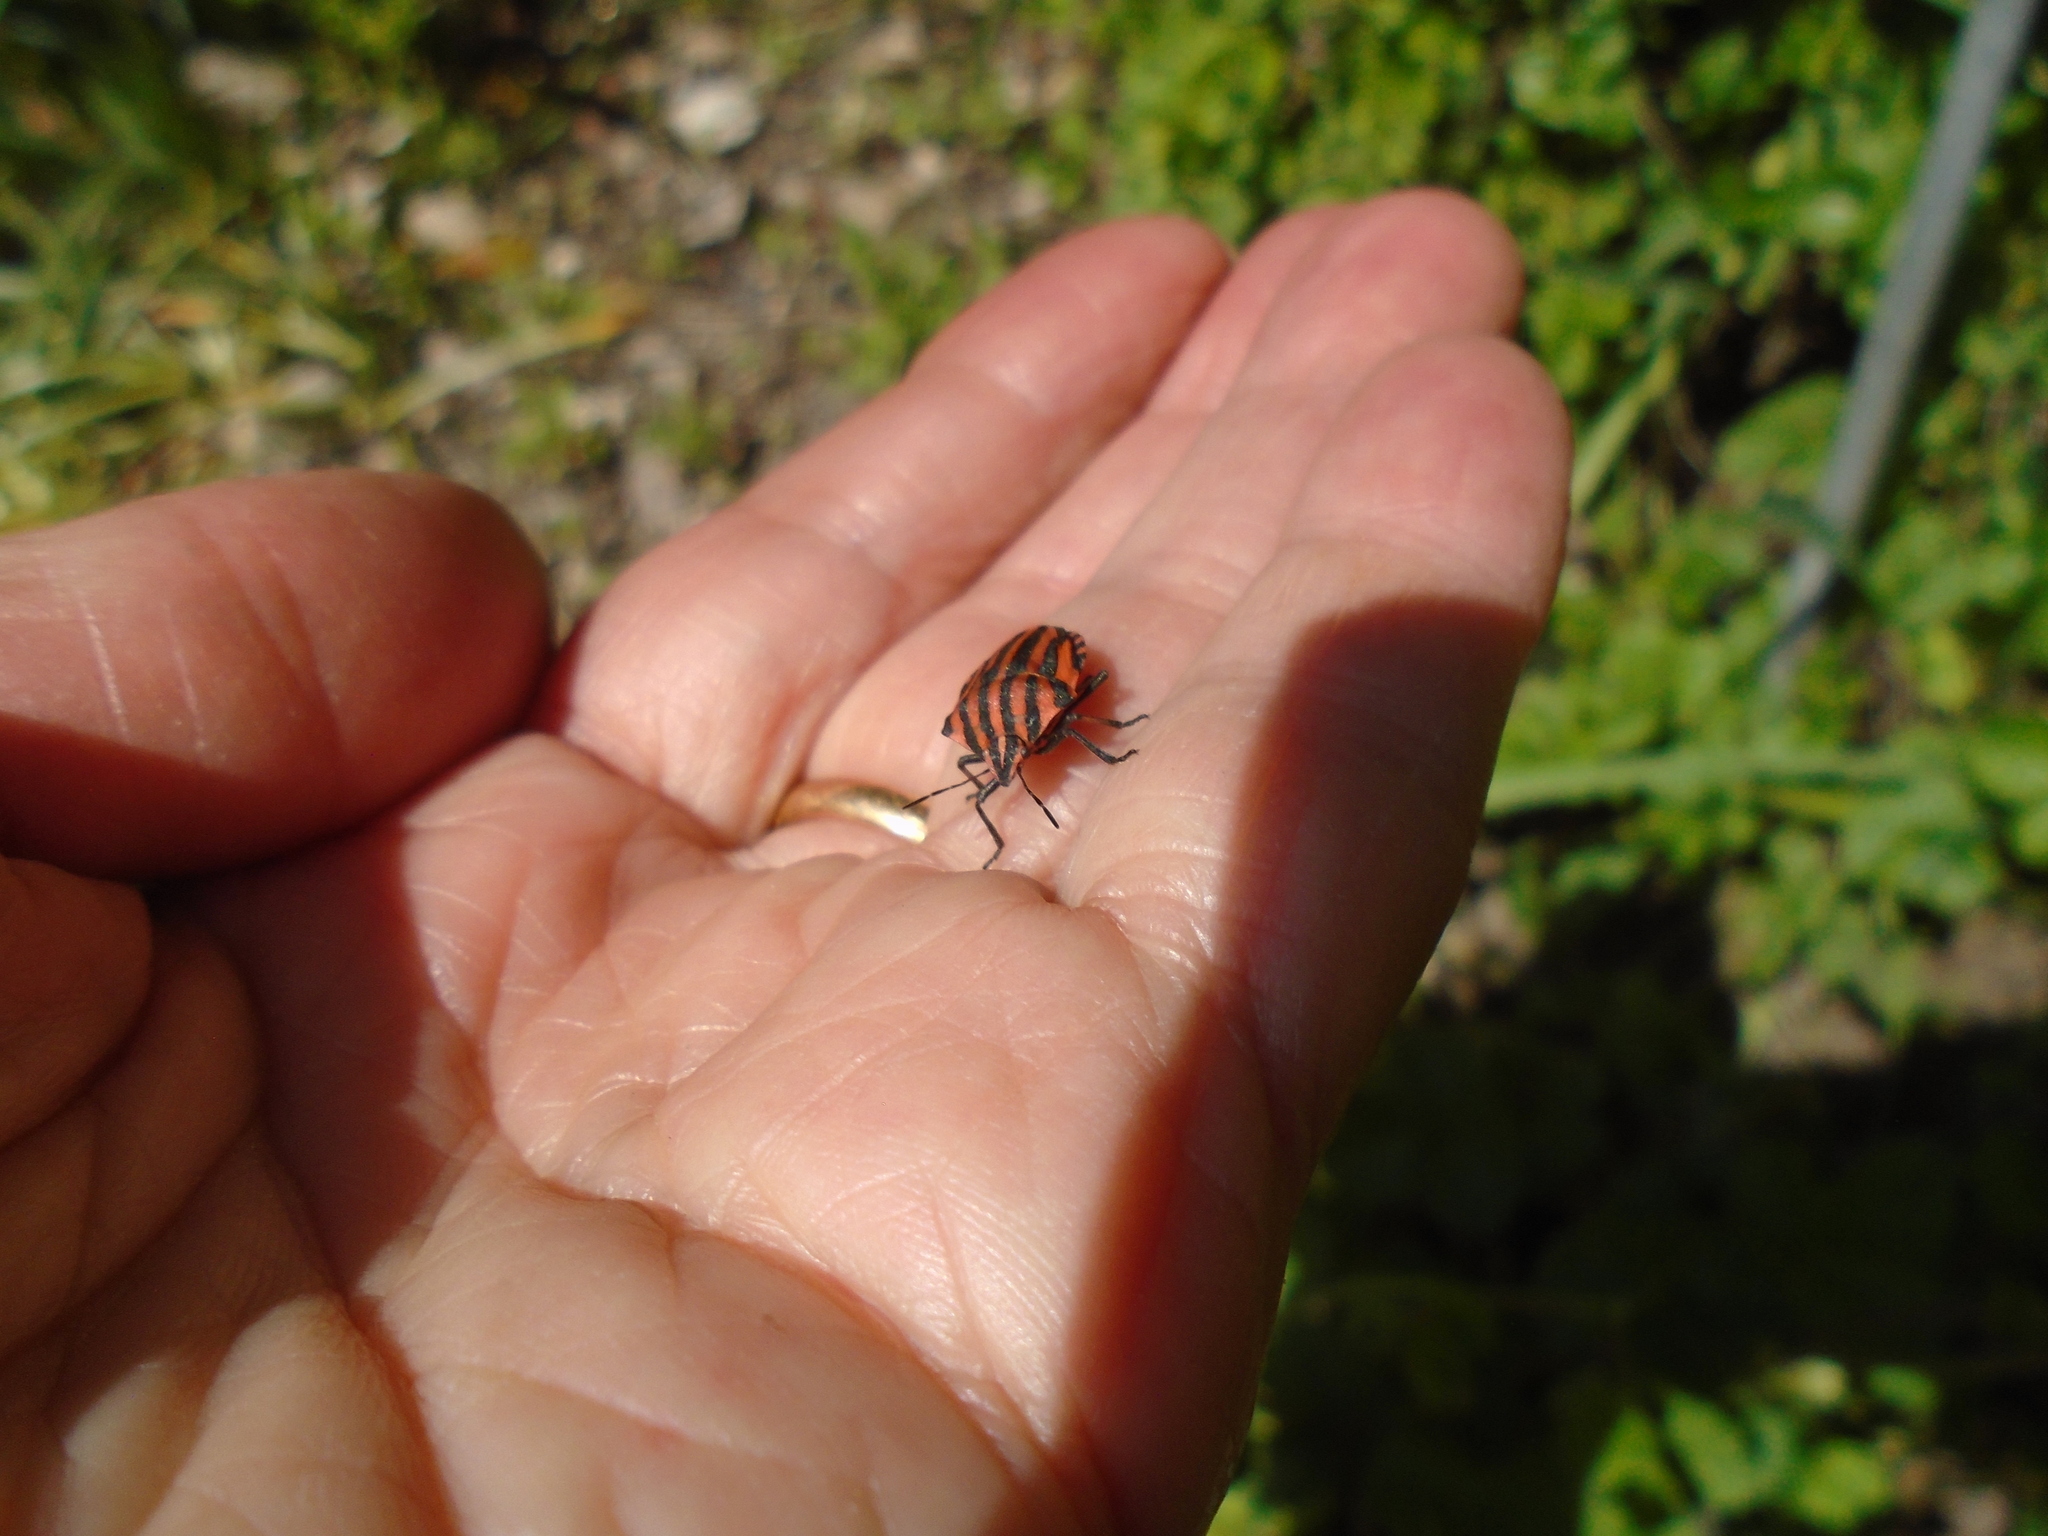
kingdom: Animalia
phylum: Arthropoda
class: Insecta
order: Hemiptera
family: Pentatomidae
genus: Graphosoma
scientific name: Graphosoma italicum
